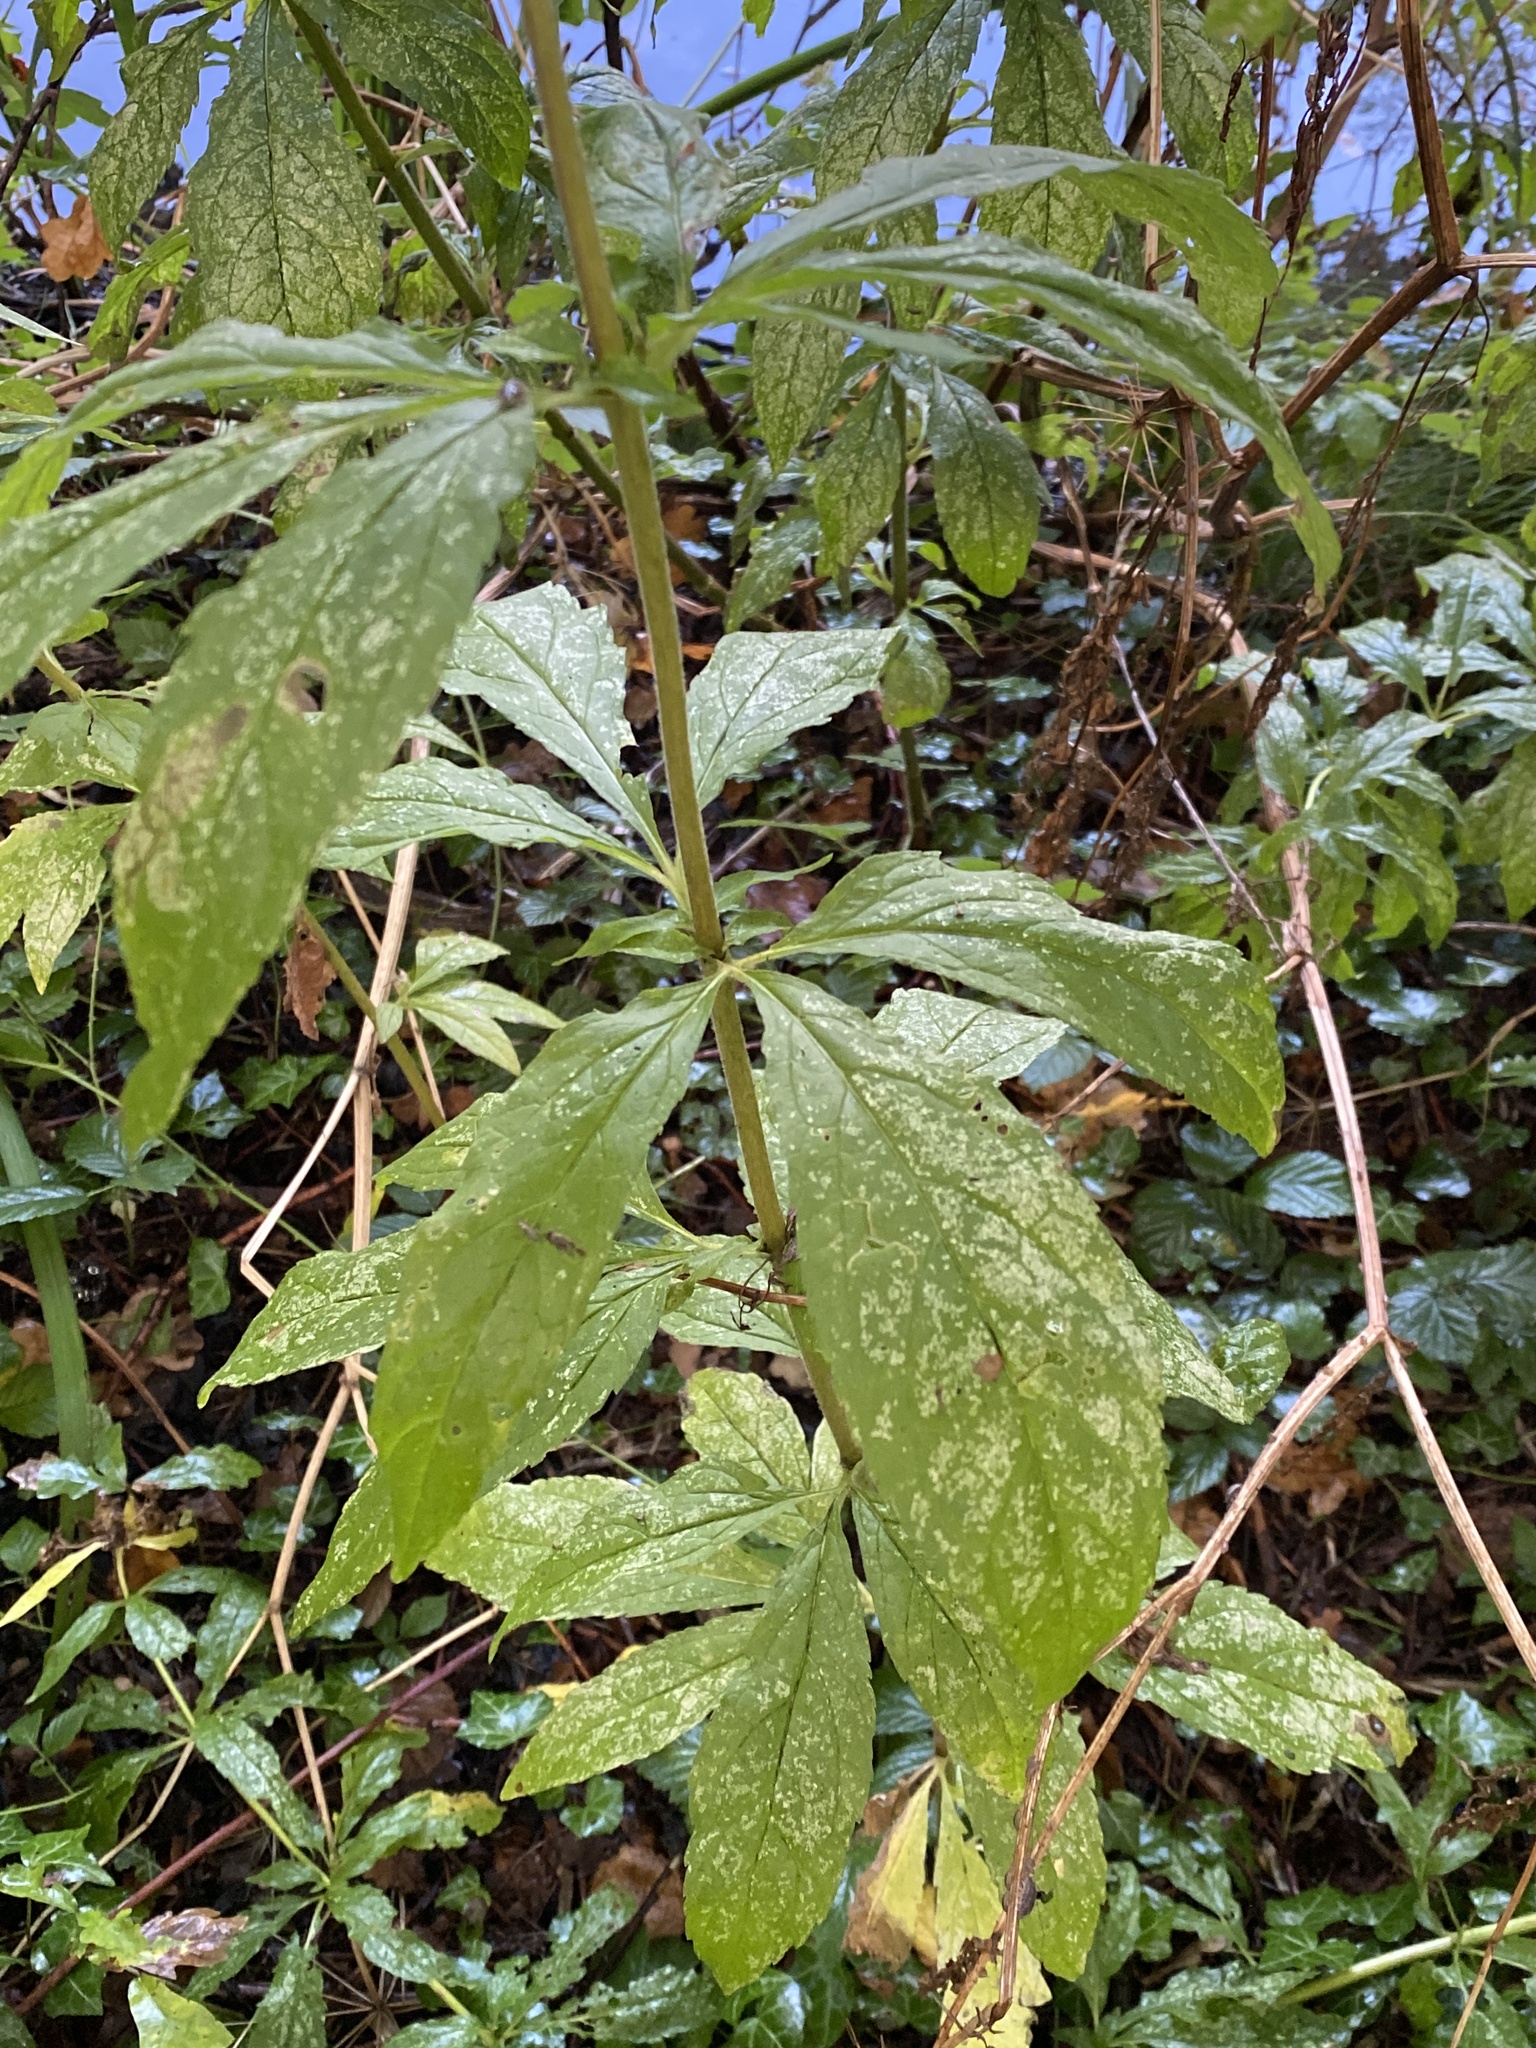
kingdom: Plantae
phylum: Tracheophyta
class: Magnoliopsida
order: Asterales
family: Asteraceae
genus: Eupatorium
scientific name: Eupatorium cannabinum
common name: Hemp-agrimony
